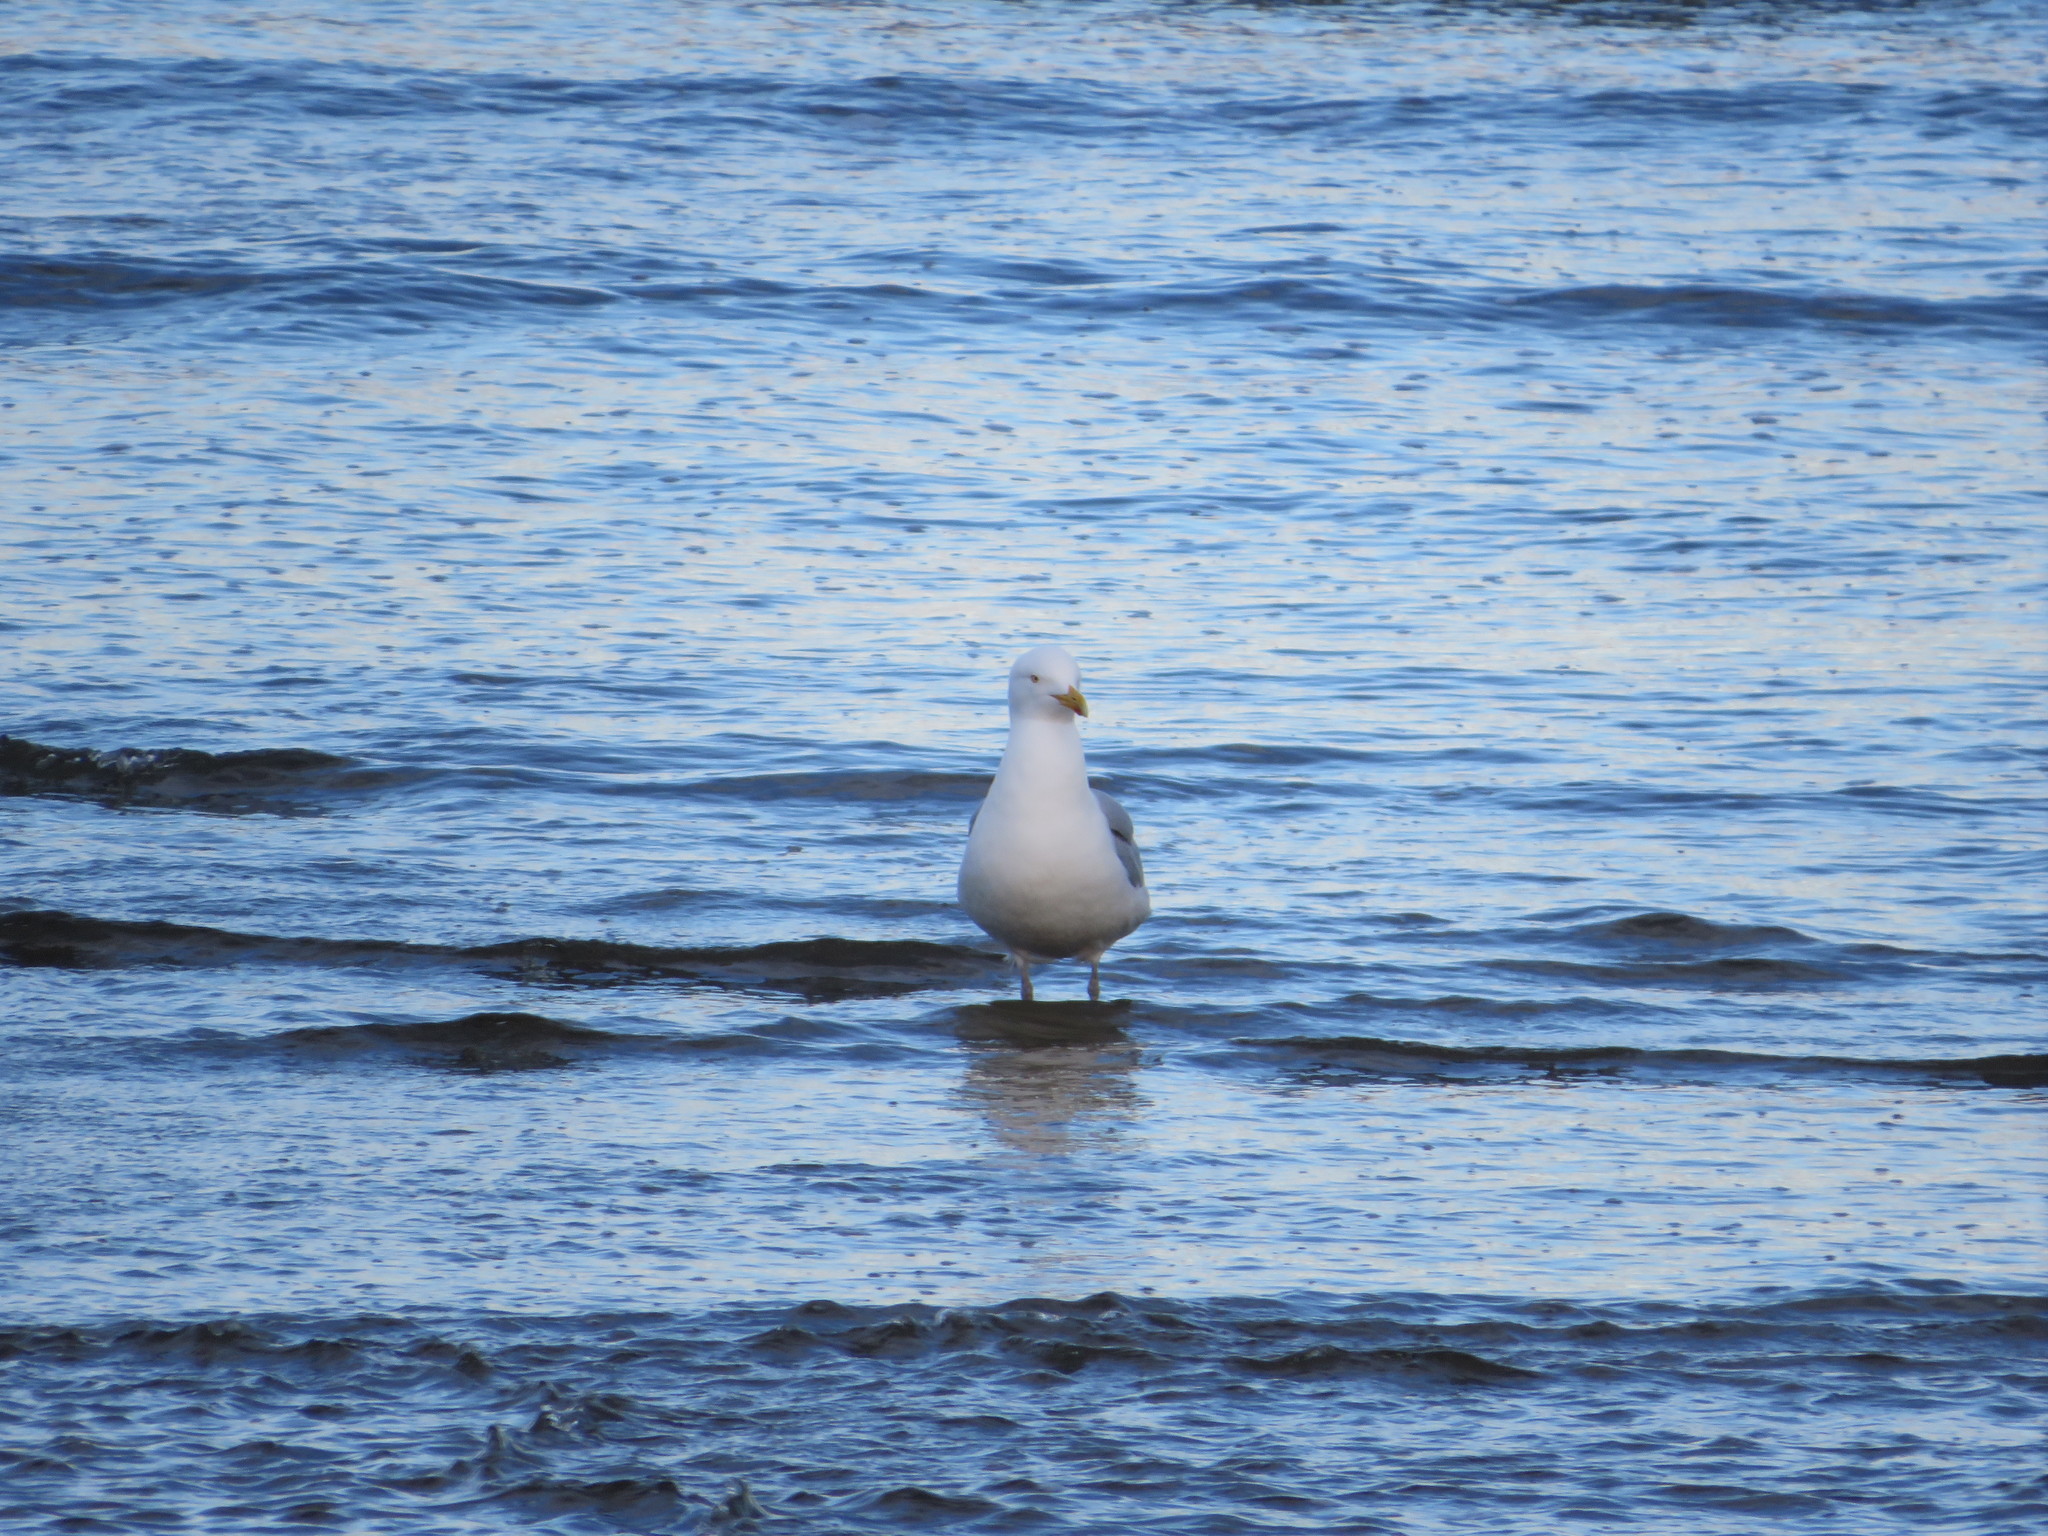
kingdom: Animalia
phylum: Chordata
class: Aves
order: Charadriiformes
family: Laridae
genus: Larus
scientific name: Larus argentatus
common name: Herring gull
